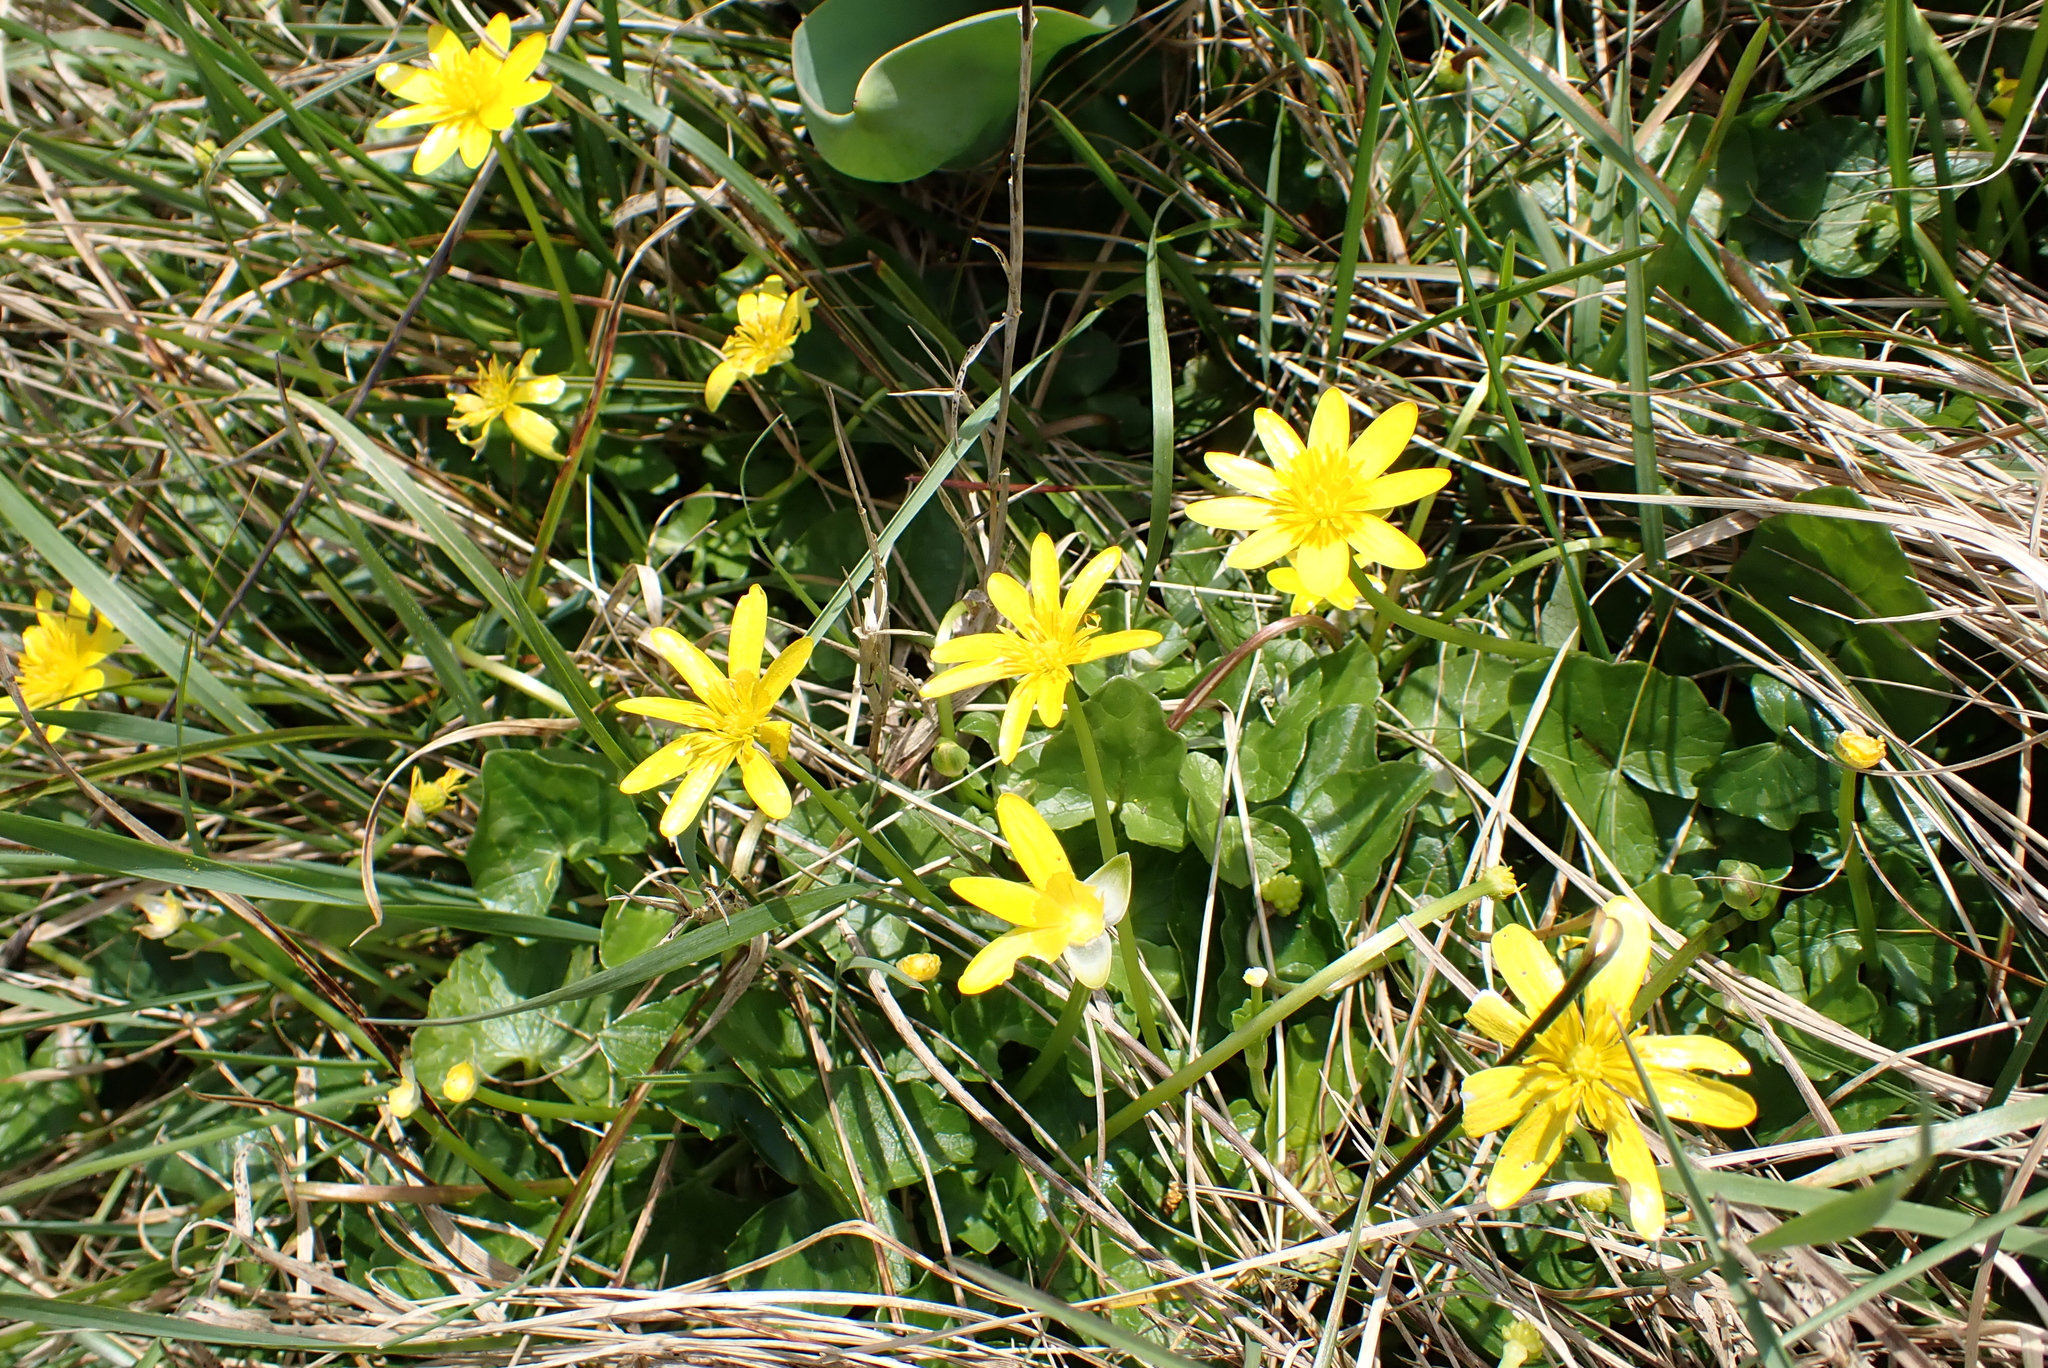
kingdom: Plantae
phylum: Tracheophyta
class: Magnoliopsida
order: Ranunculales
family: Ranunculaceae
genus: Ficaria
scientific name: Ficaria verna
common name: Lesser celandine
